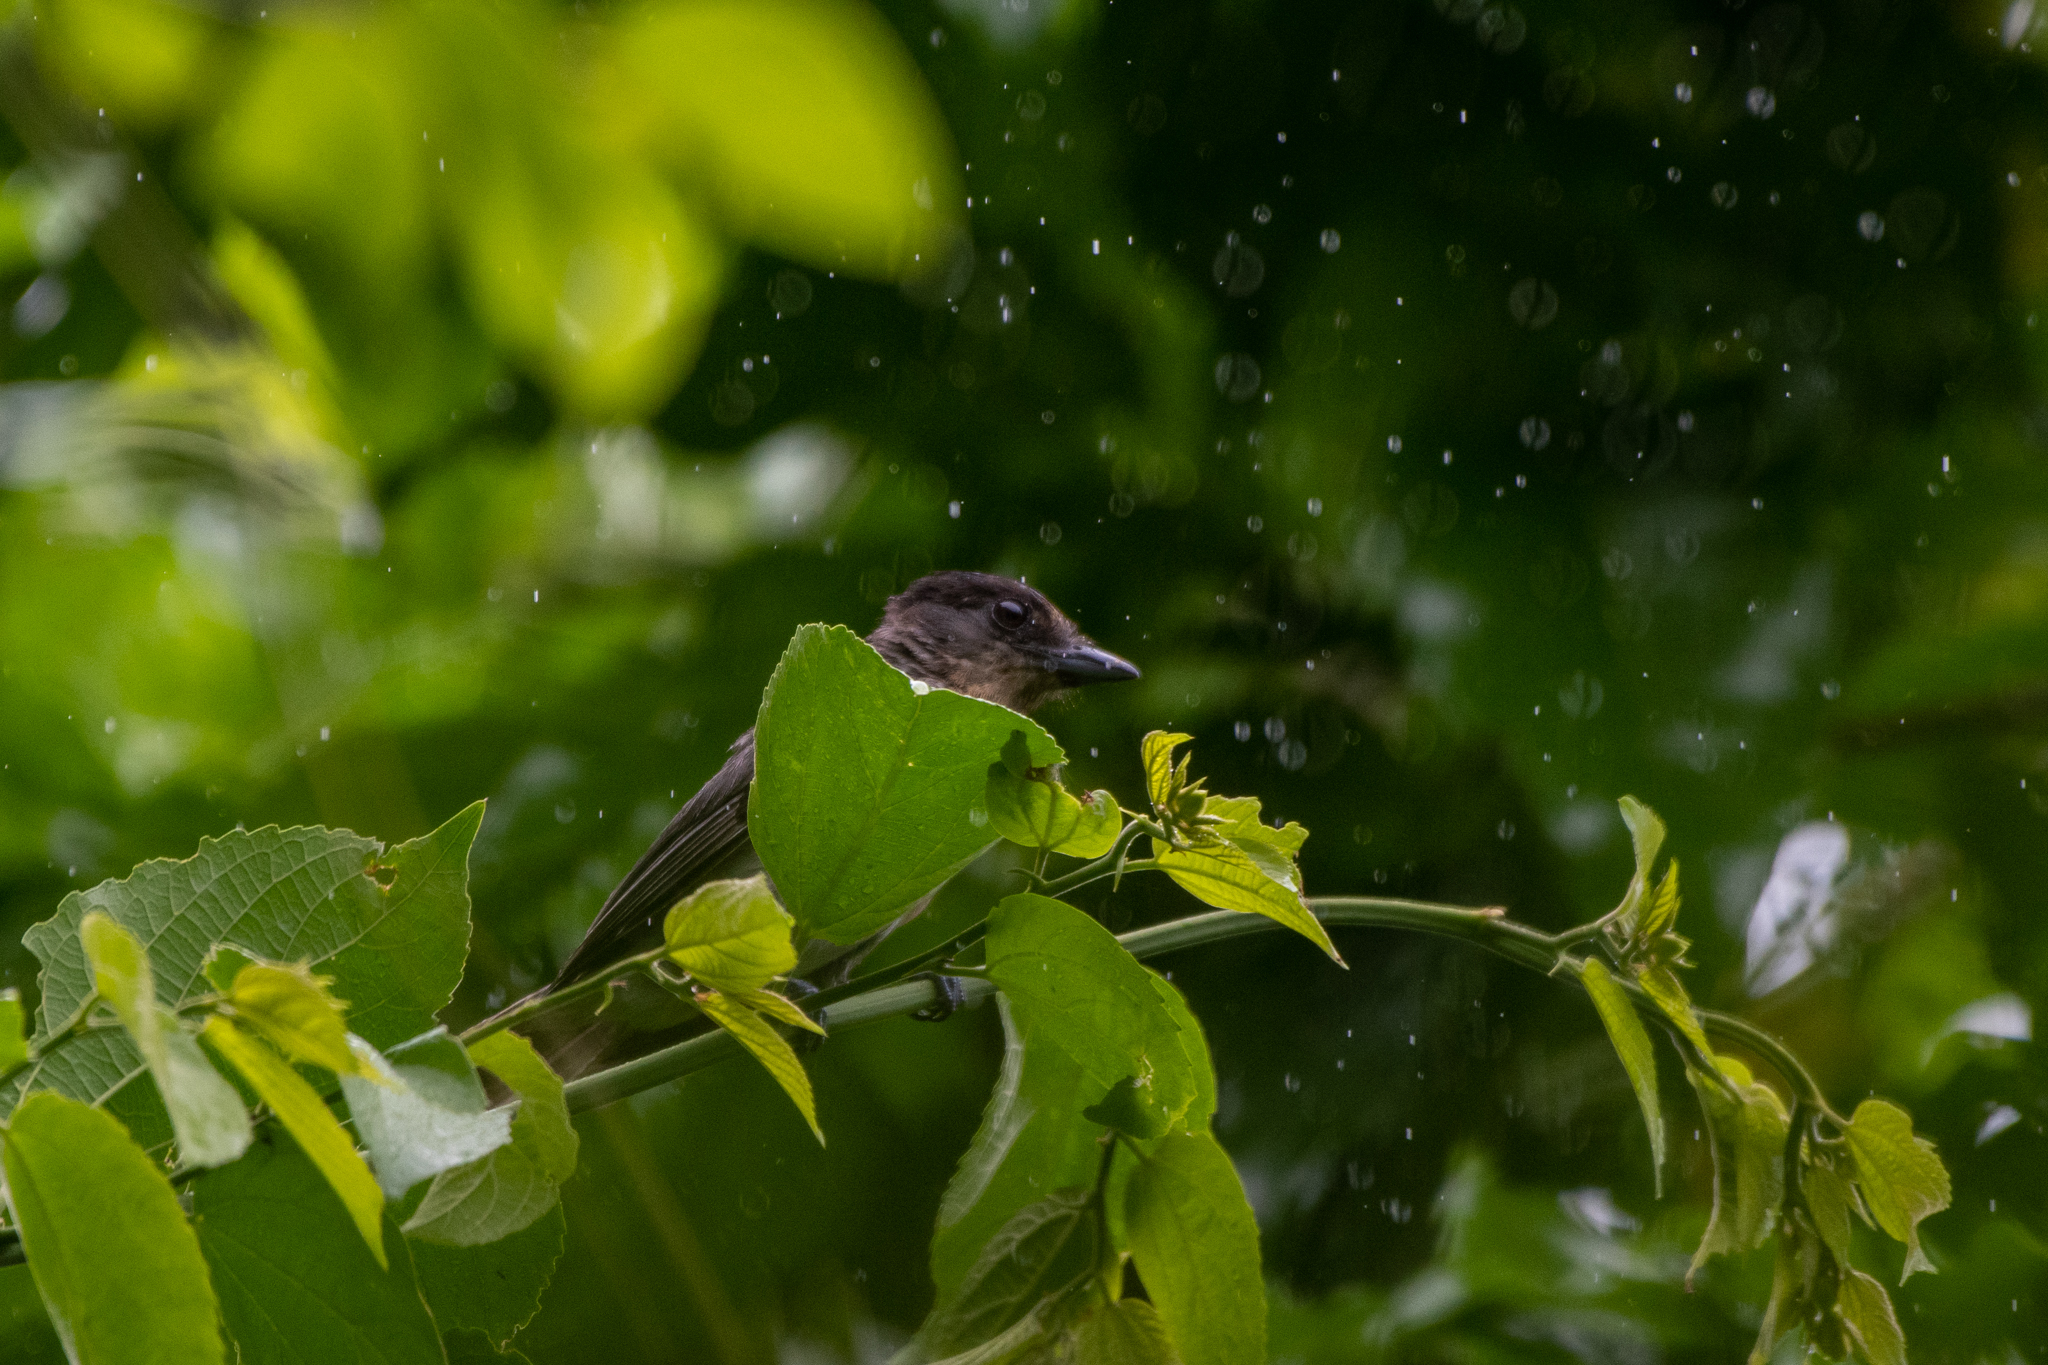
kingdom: Animalia
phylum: Chordata
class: Aves
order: Passeriformes
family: Cotingidae
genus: Pachyramphus
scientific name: Pachyramphus aglaiae
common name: Rose-throated becard
